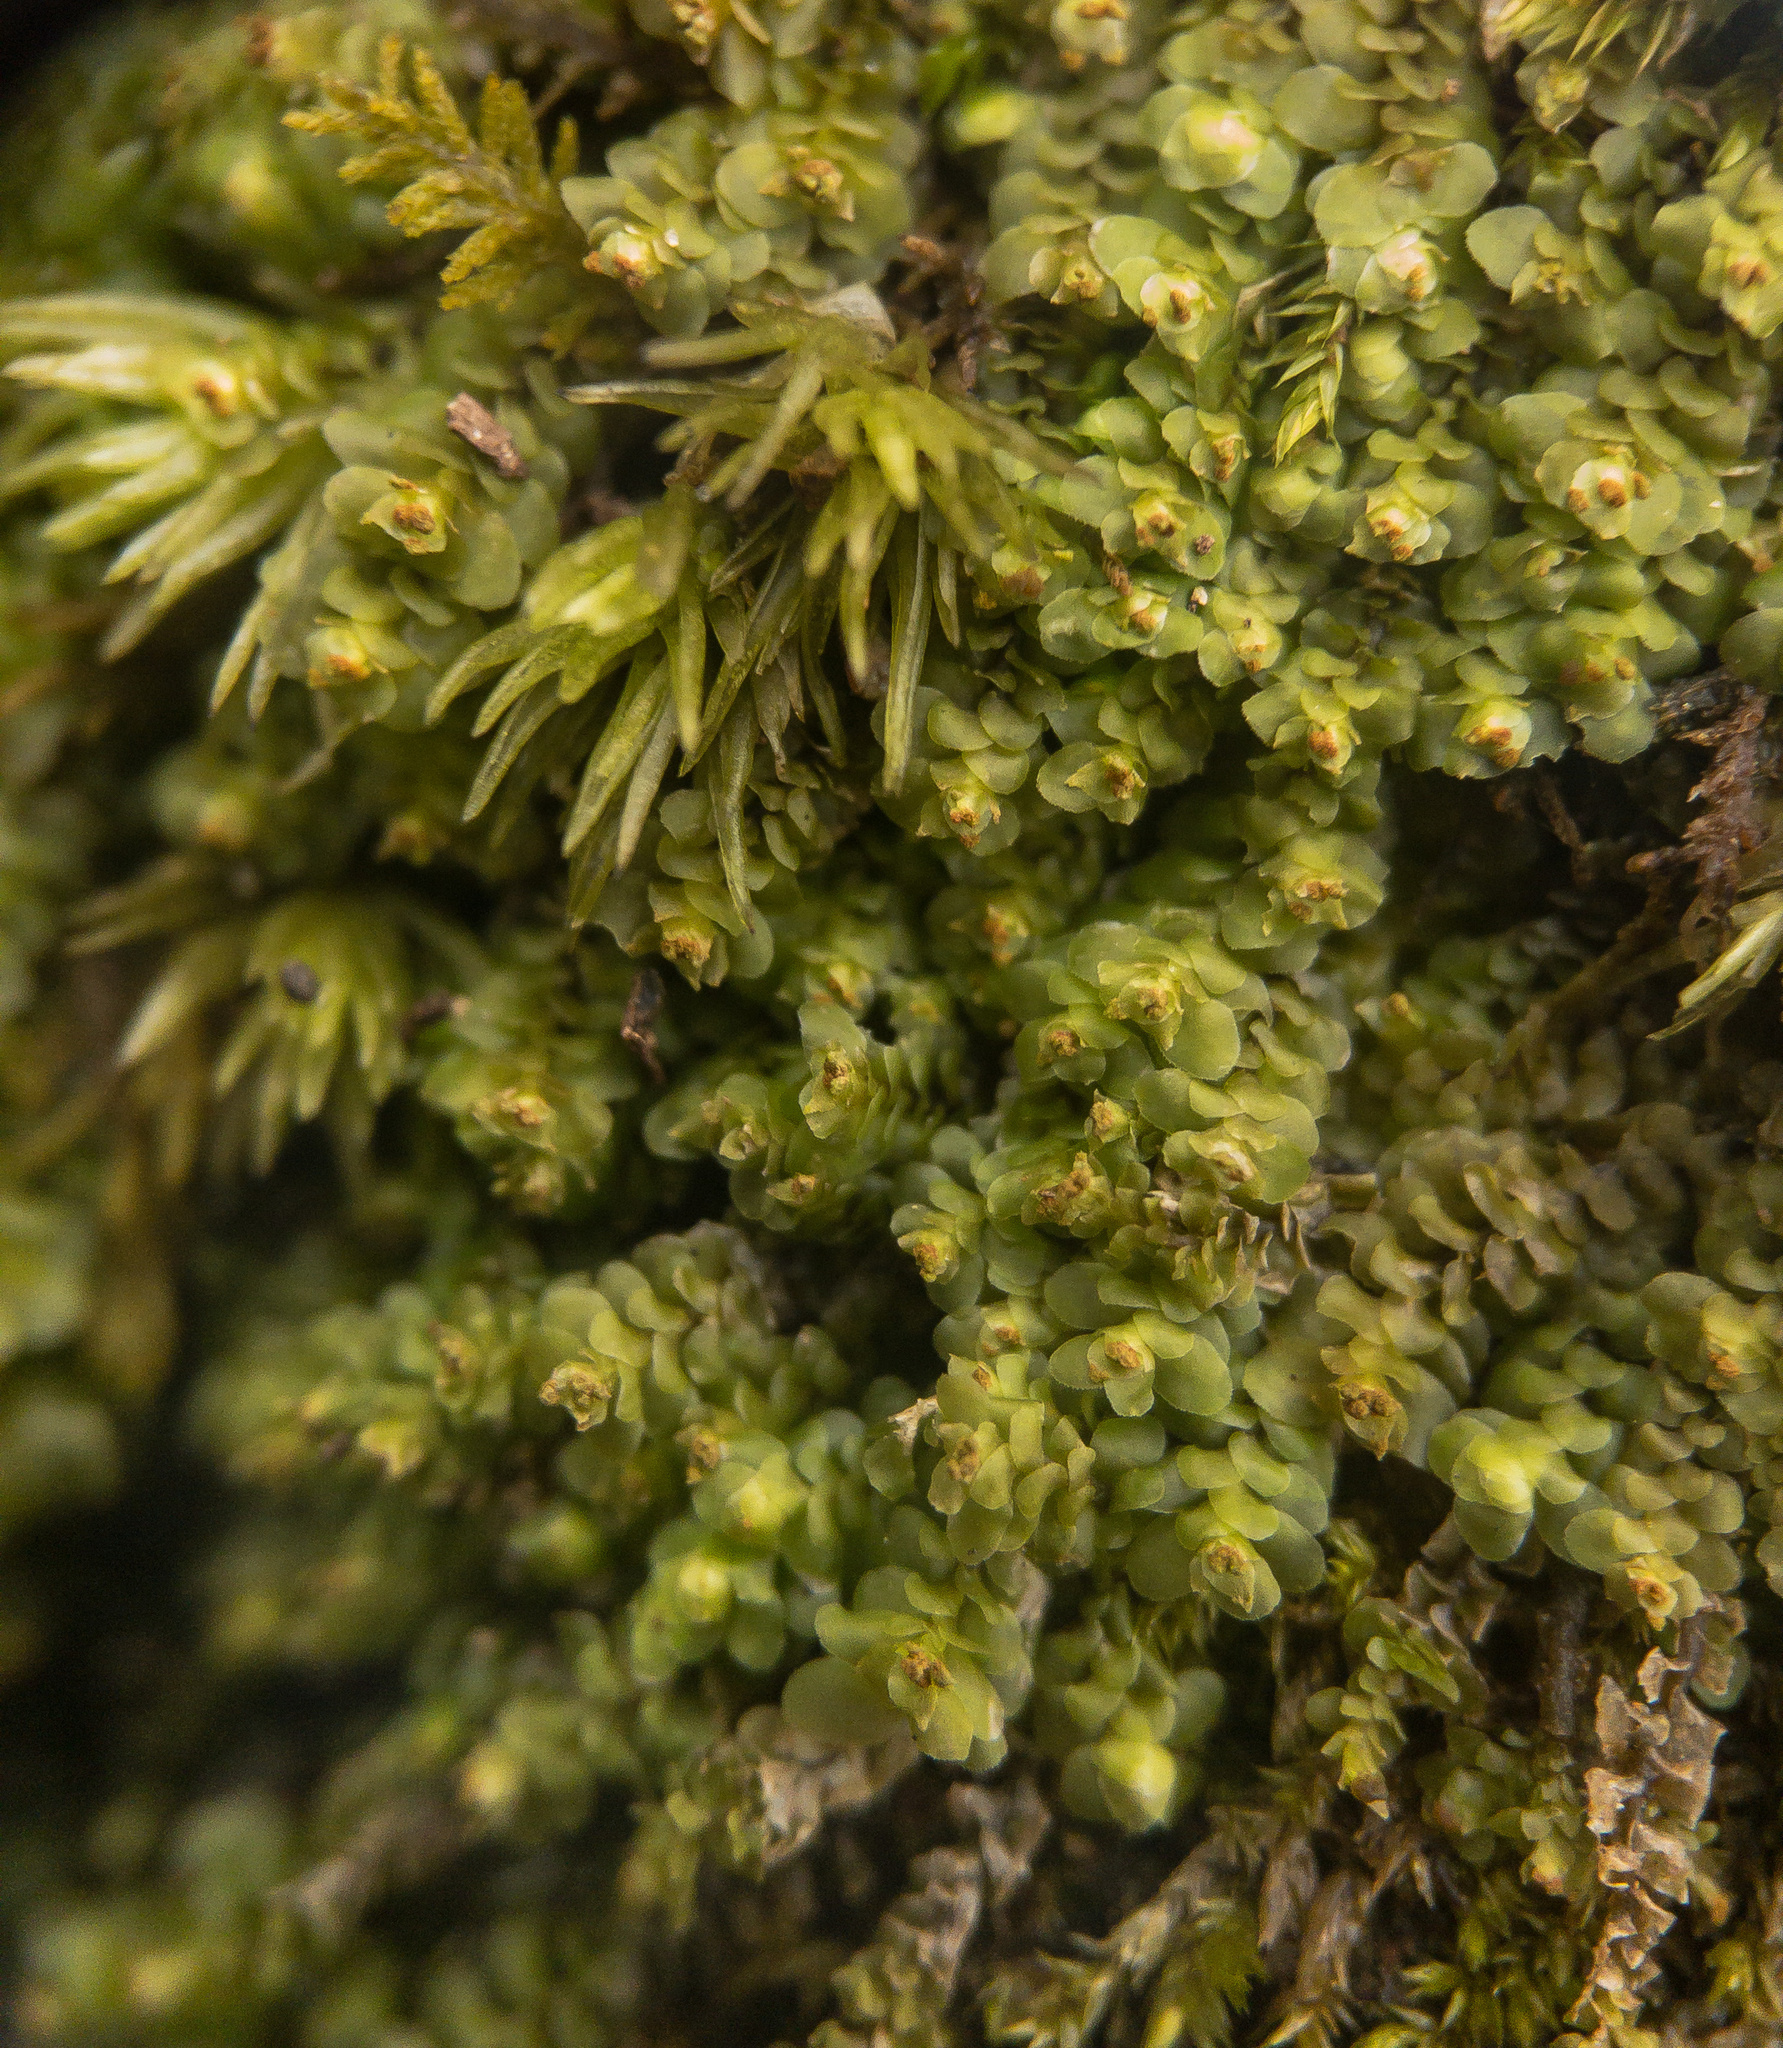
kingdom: Plantae
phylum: Marchantiophyta
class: Jungermanniopsida
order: Jungermanniales
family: Scapaniaceae
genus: Scapania
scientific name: Scapania nemorea
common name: Grove earwort
